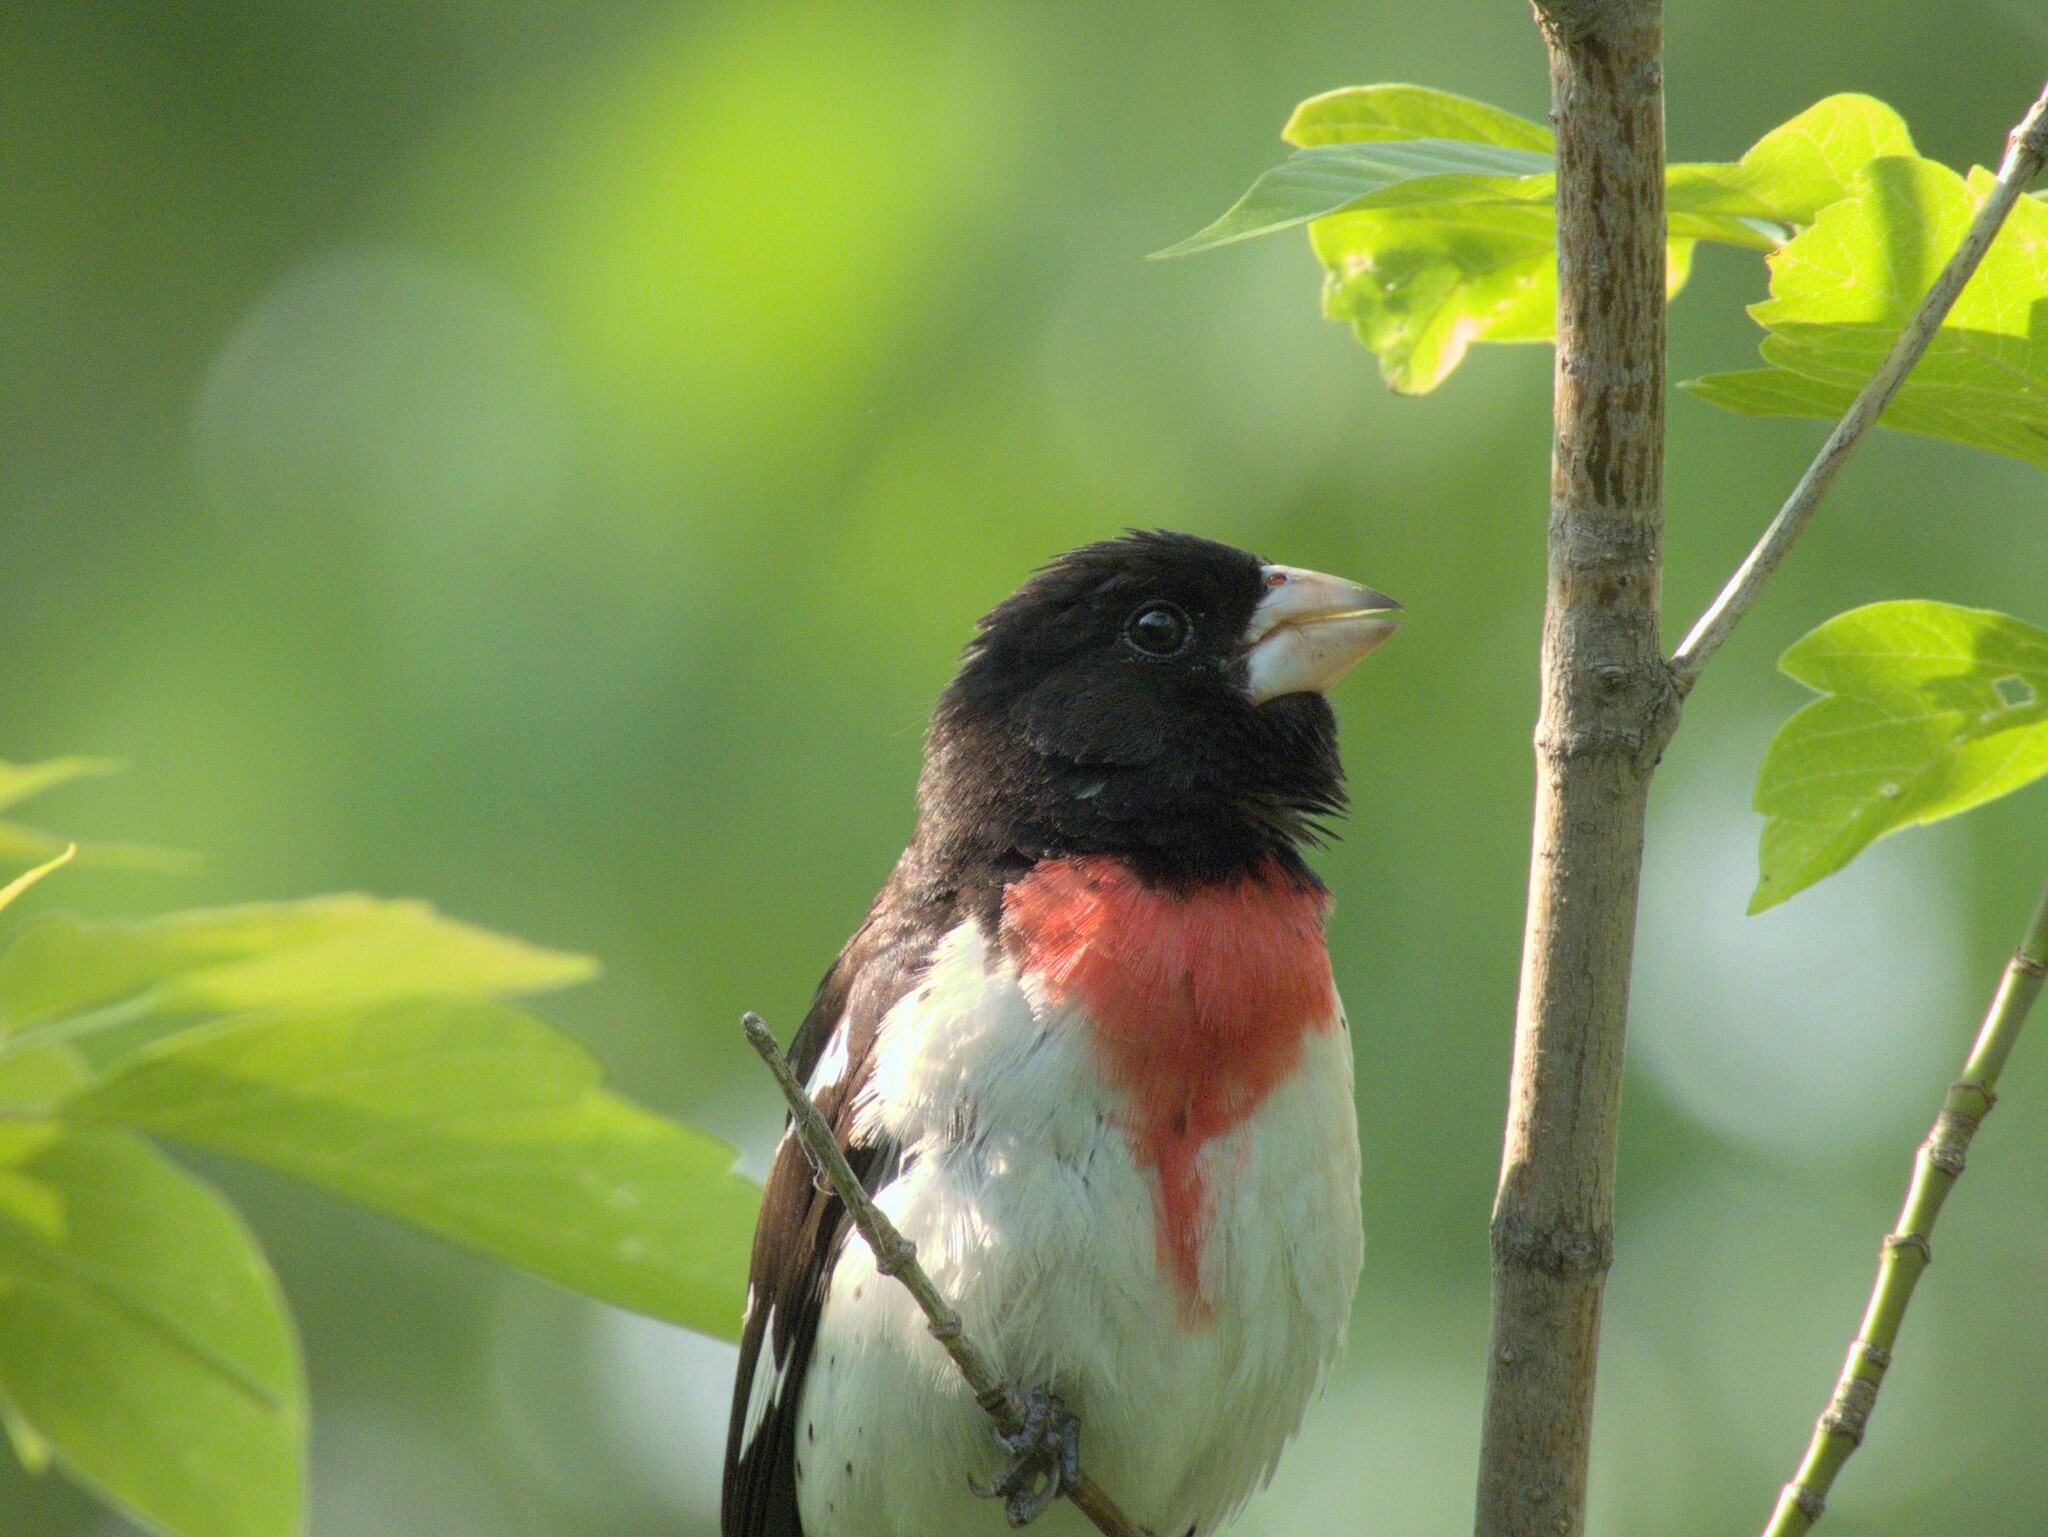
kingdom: Animalia
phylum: Chordata
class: Aves
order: Passeriformes
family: Cardinalidae
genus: Pheucticus
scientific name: Pheucticus ludovicianus
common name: Rose-breasted grosbeak
